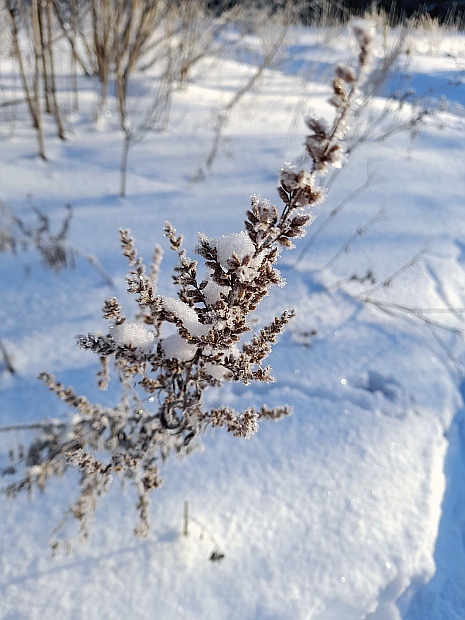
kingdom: Plantae
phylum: Tracheophyta
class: Magnoliopsida
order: Asterales
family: Asteraceae
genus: Artemisia
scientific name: Artemisia vulgaris
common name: Mugwort
